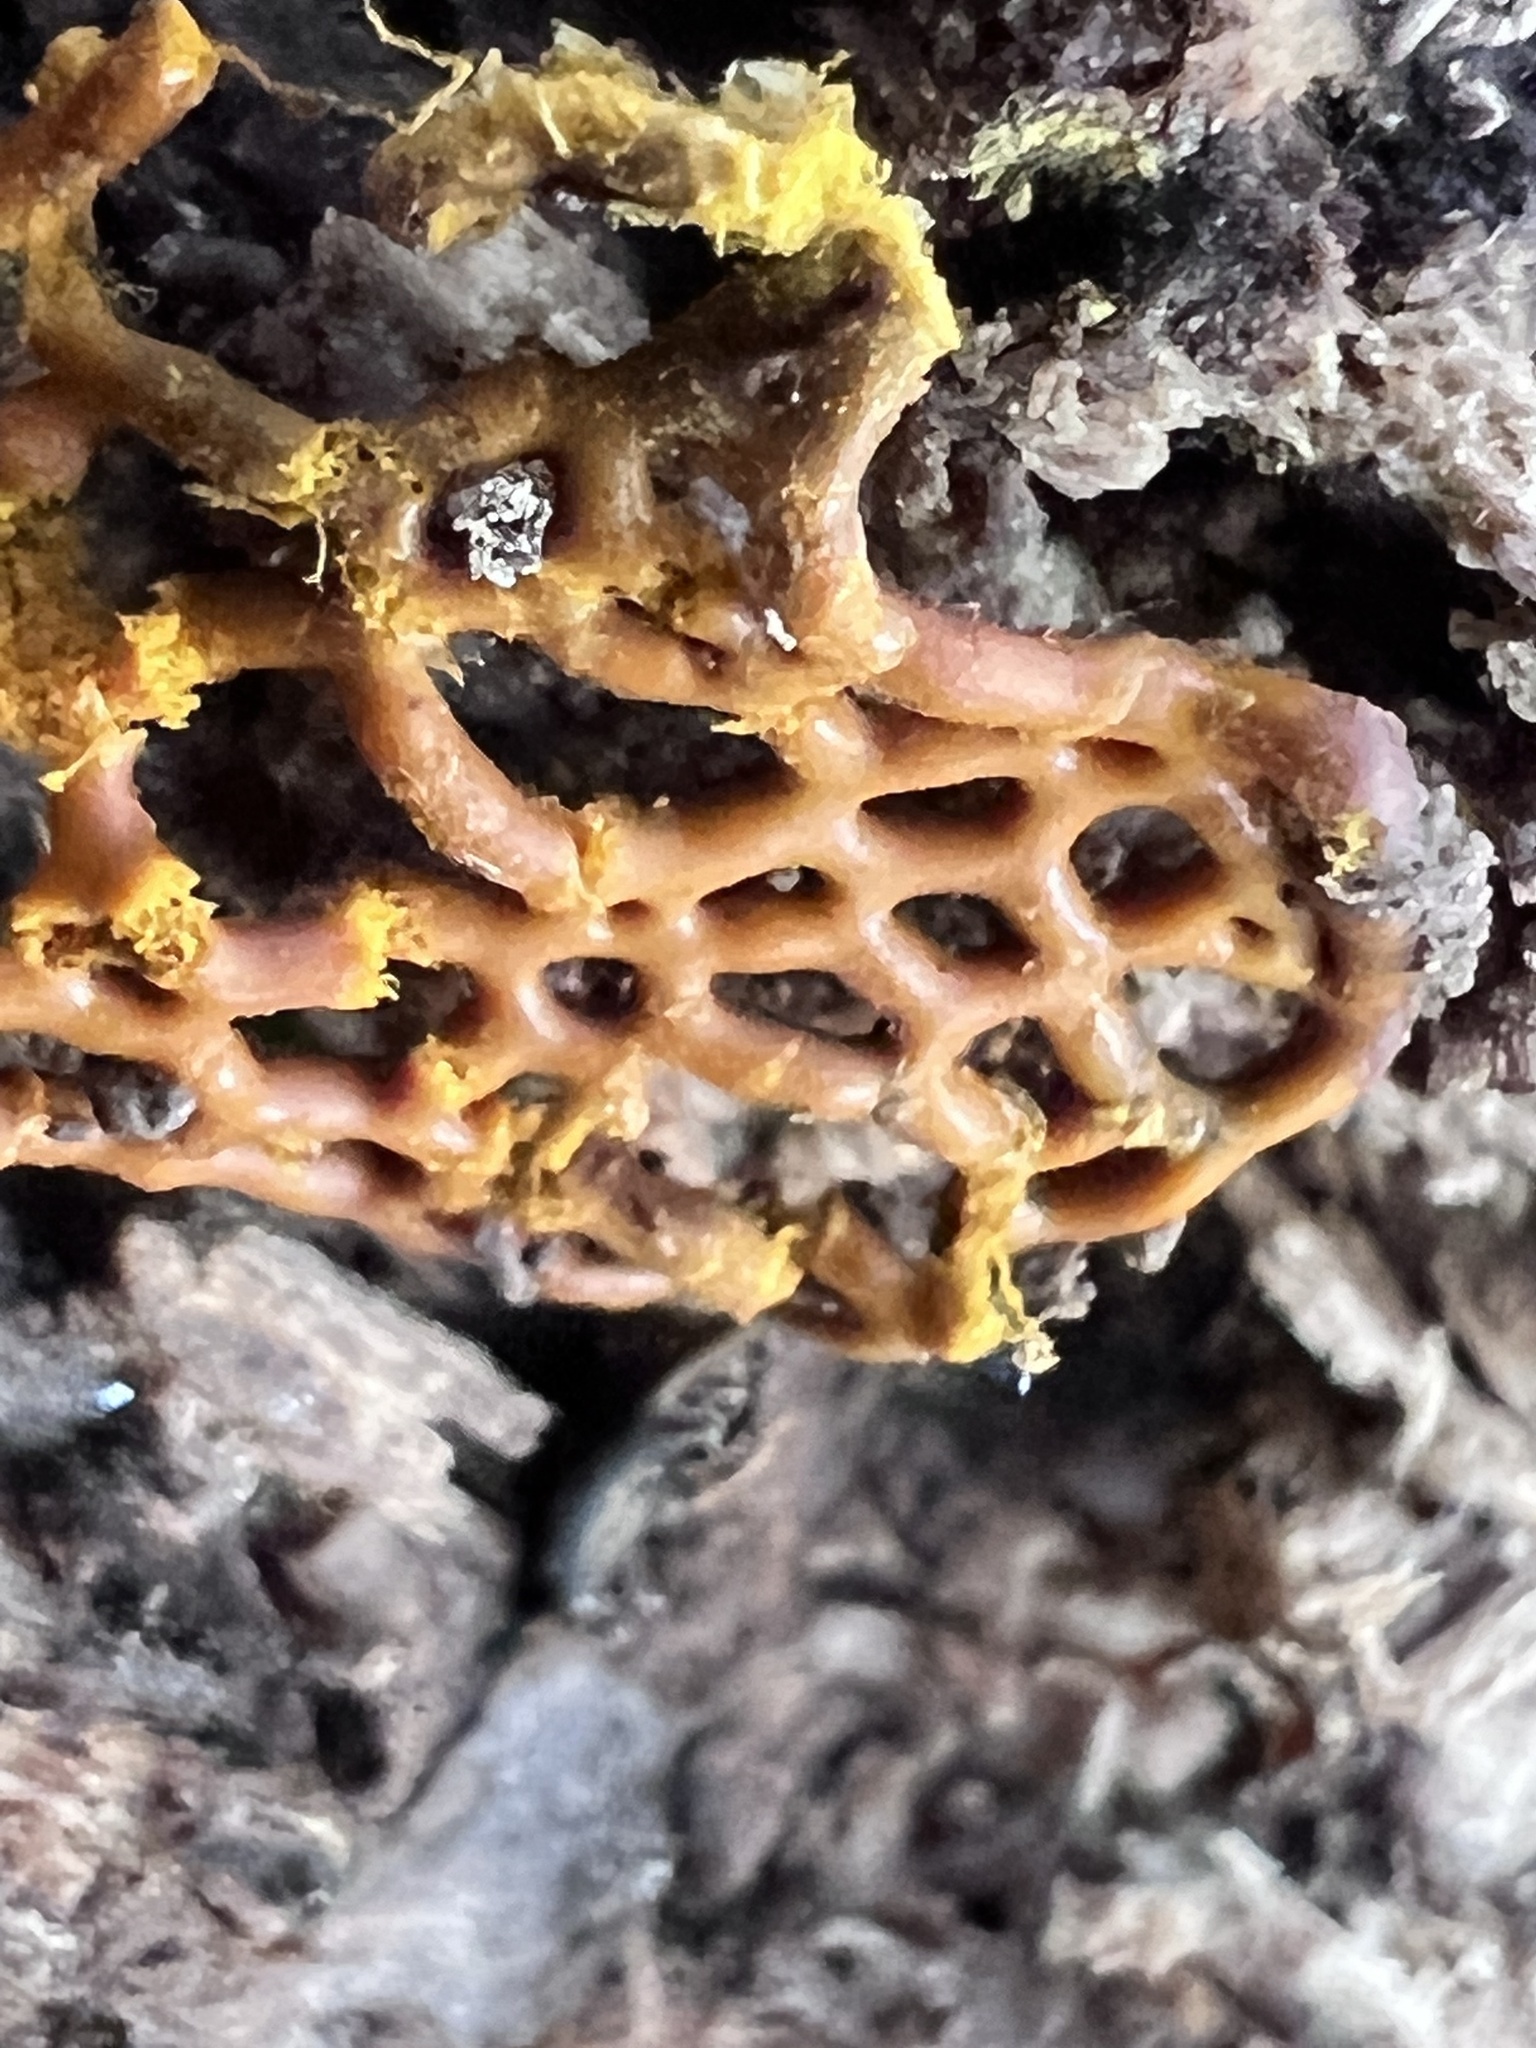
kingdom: Protozoa
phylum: Mycetozoa
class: Myxomycetes
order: Trichiales
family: Arcyriaceae
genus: Hemitrichia
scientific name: Hemitrichia serpula
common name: Pretzel slime mold
